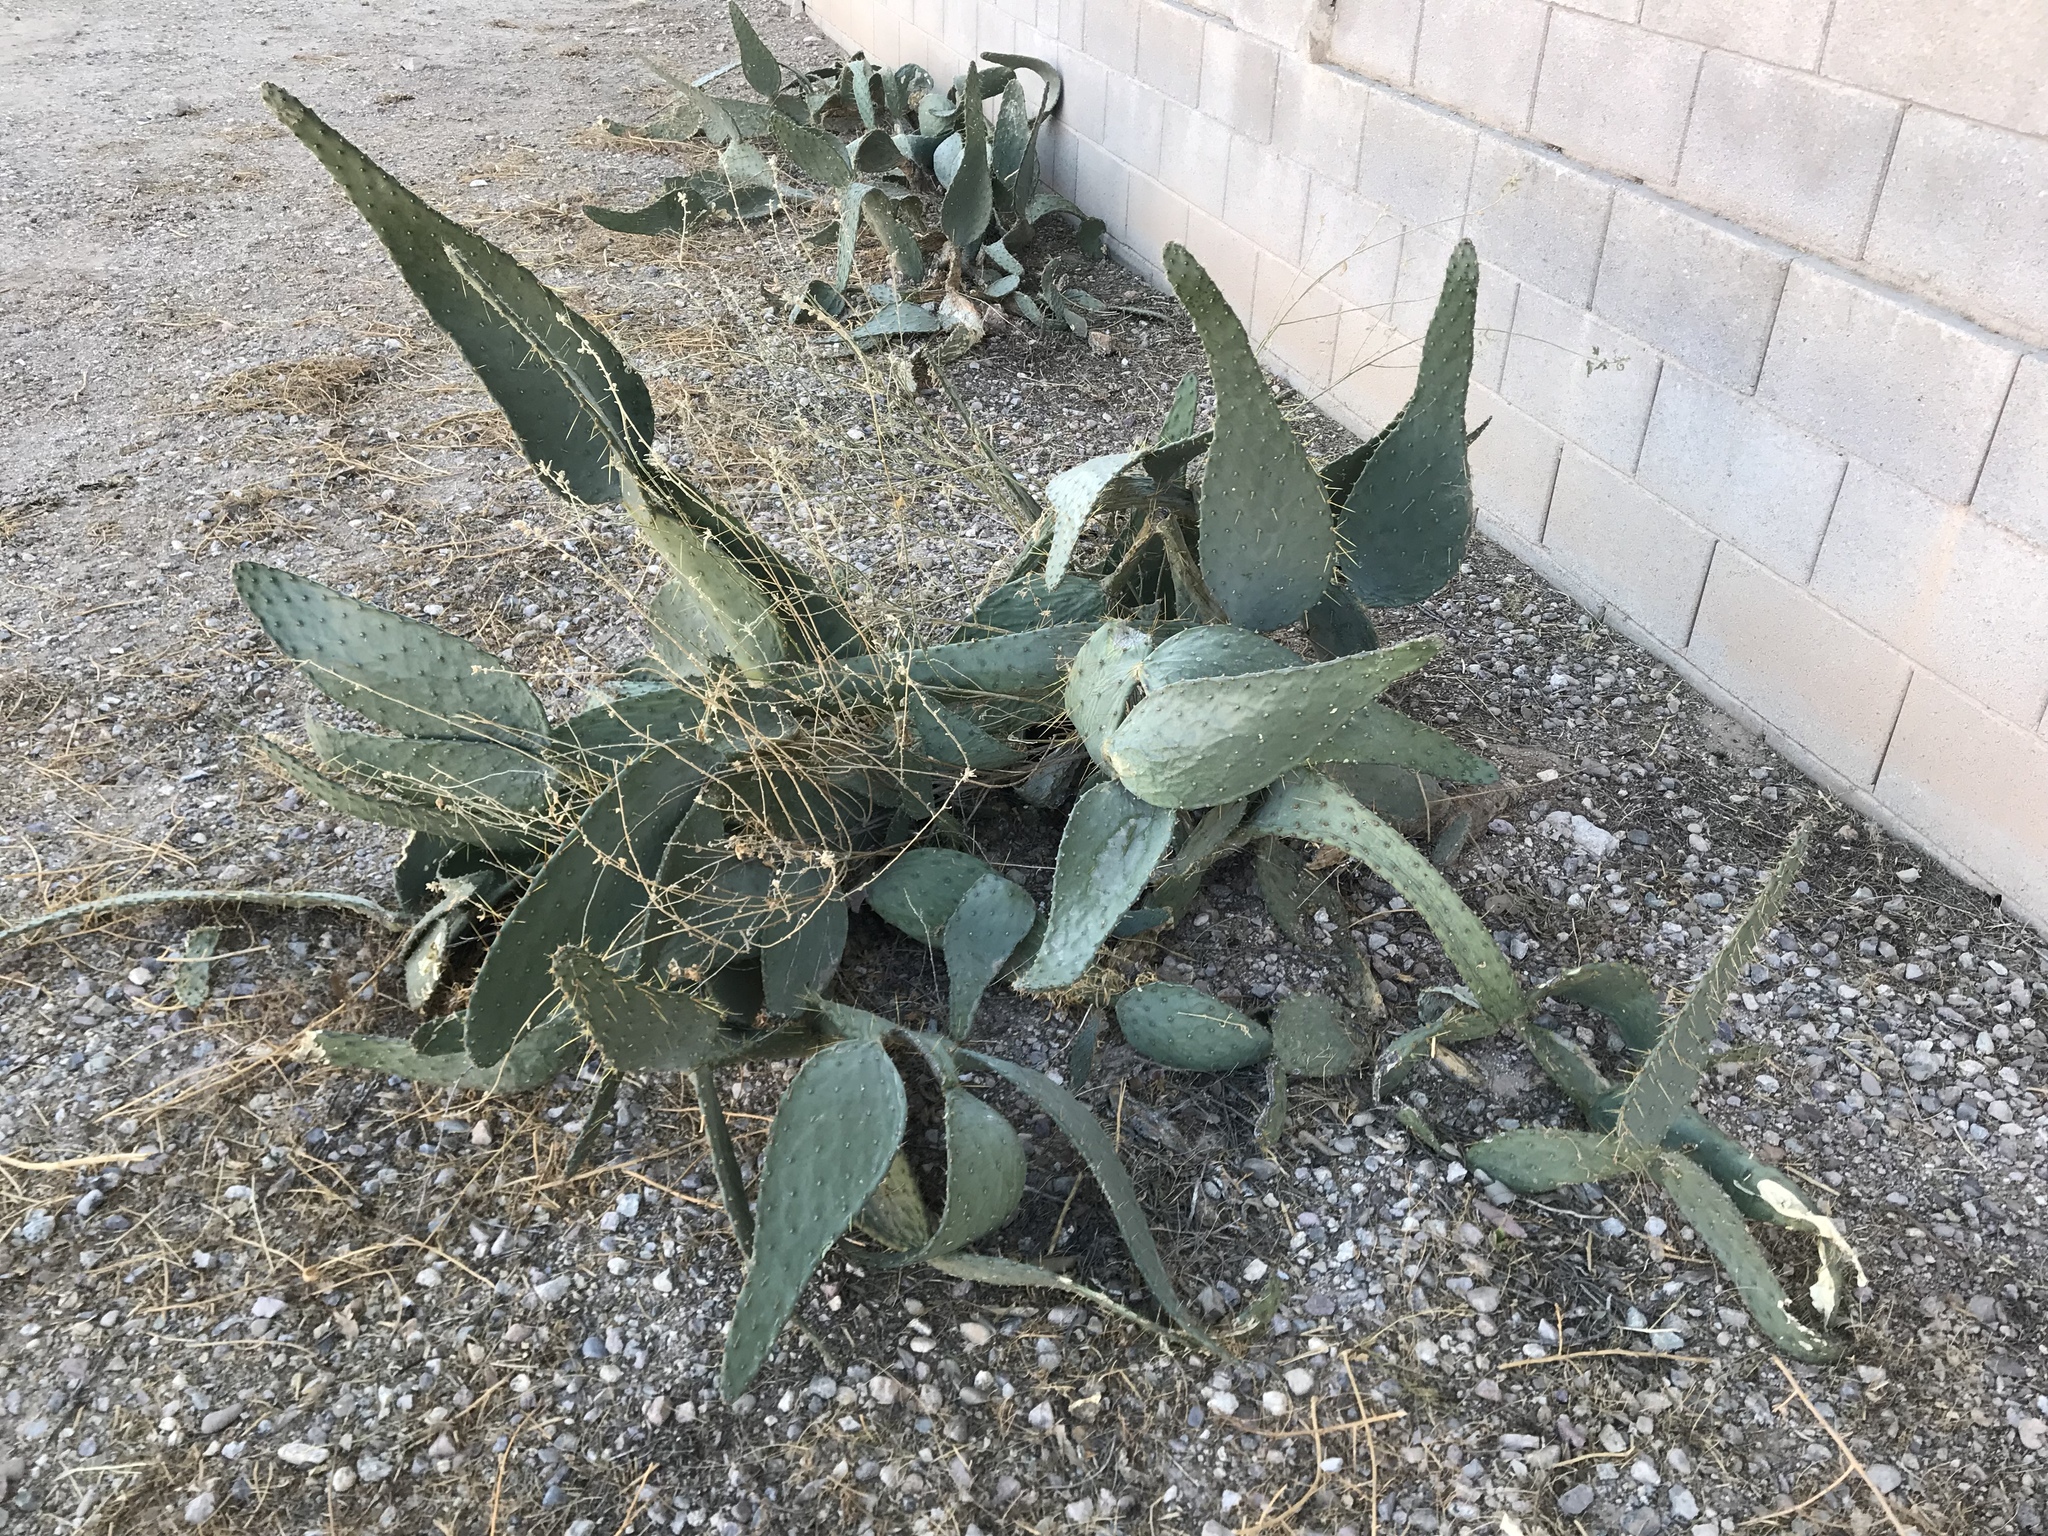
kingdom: Plantae
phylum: Tracheophyta
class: Magnoliopsida
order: Caryophyllales
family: Cactaceae
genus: Opuntia
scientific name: Opuntia engelmannii
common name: Cactus-apple
